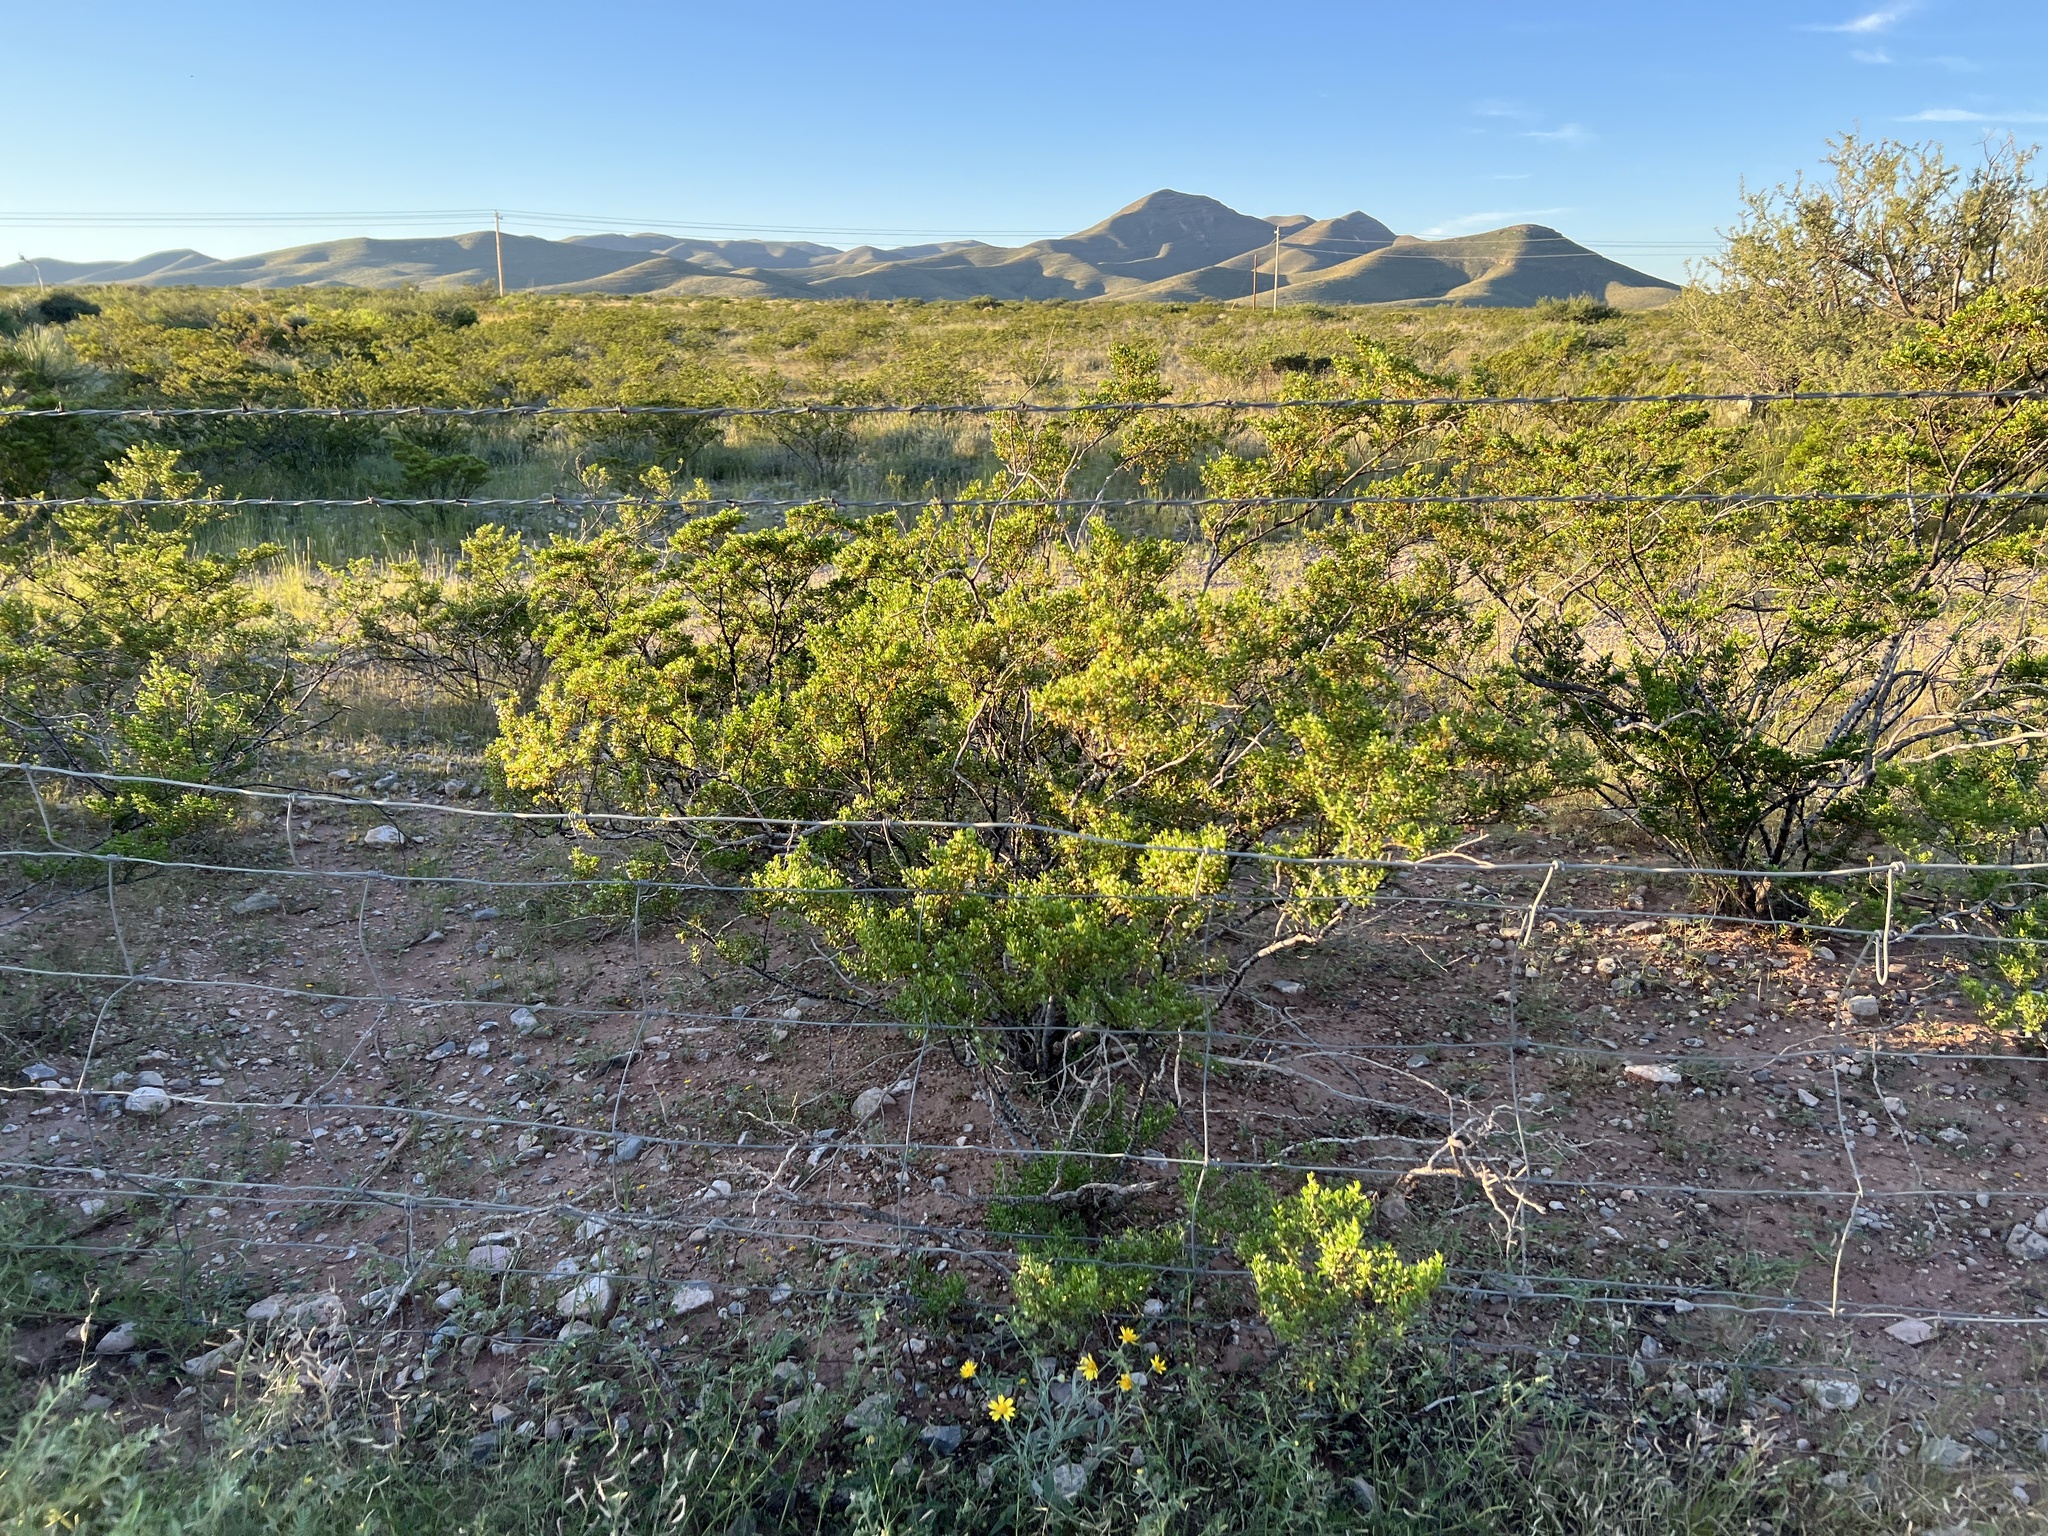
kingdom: Plantae
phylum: Tracheophyta
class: Magnoliopsida
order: Zygophyllales
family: Zygophyllaceae
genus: Larrea
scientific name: Larrea tridentata
